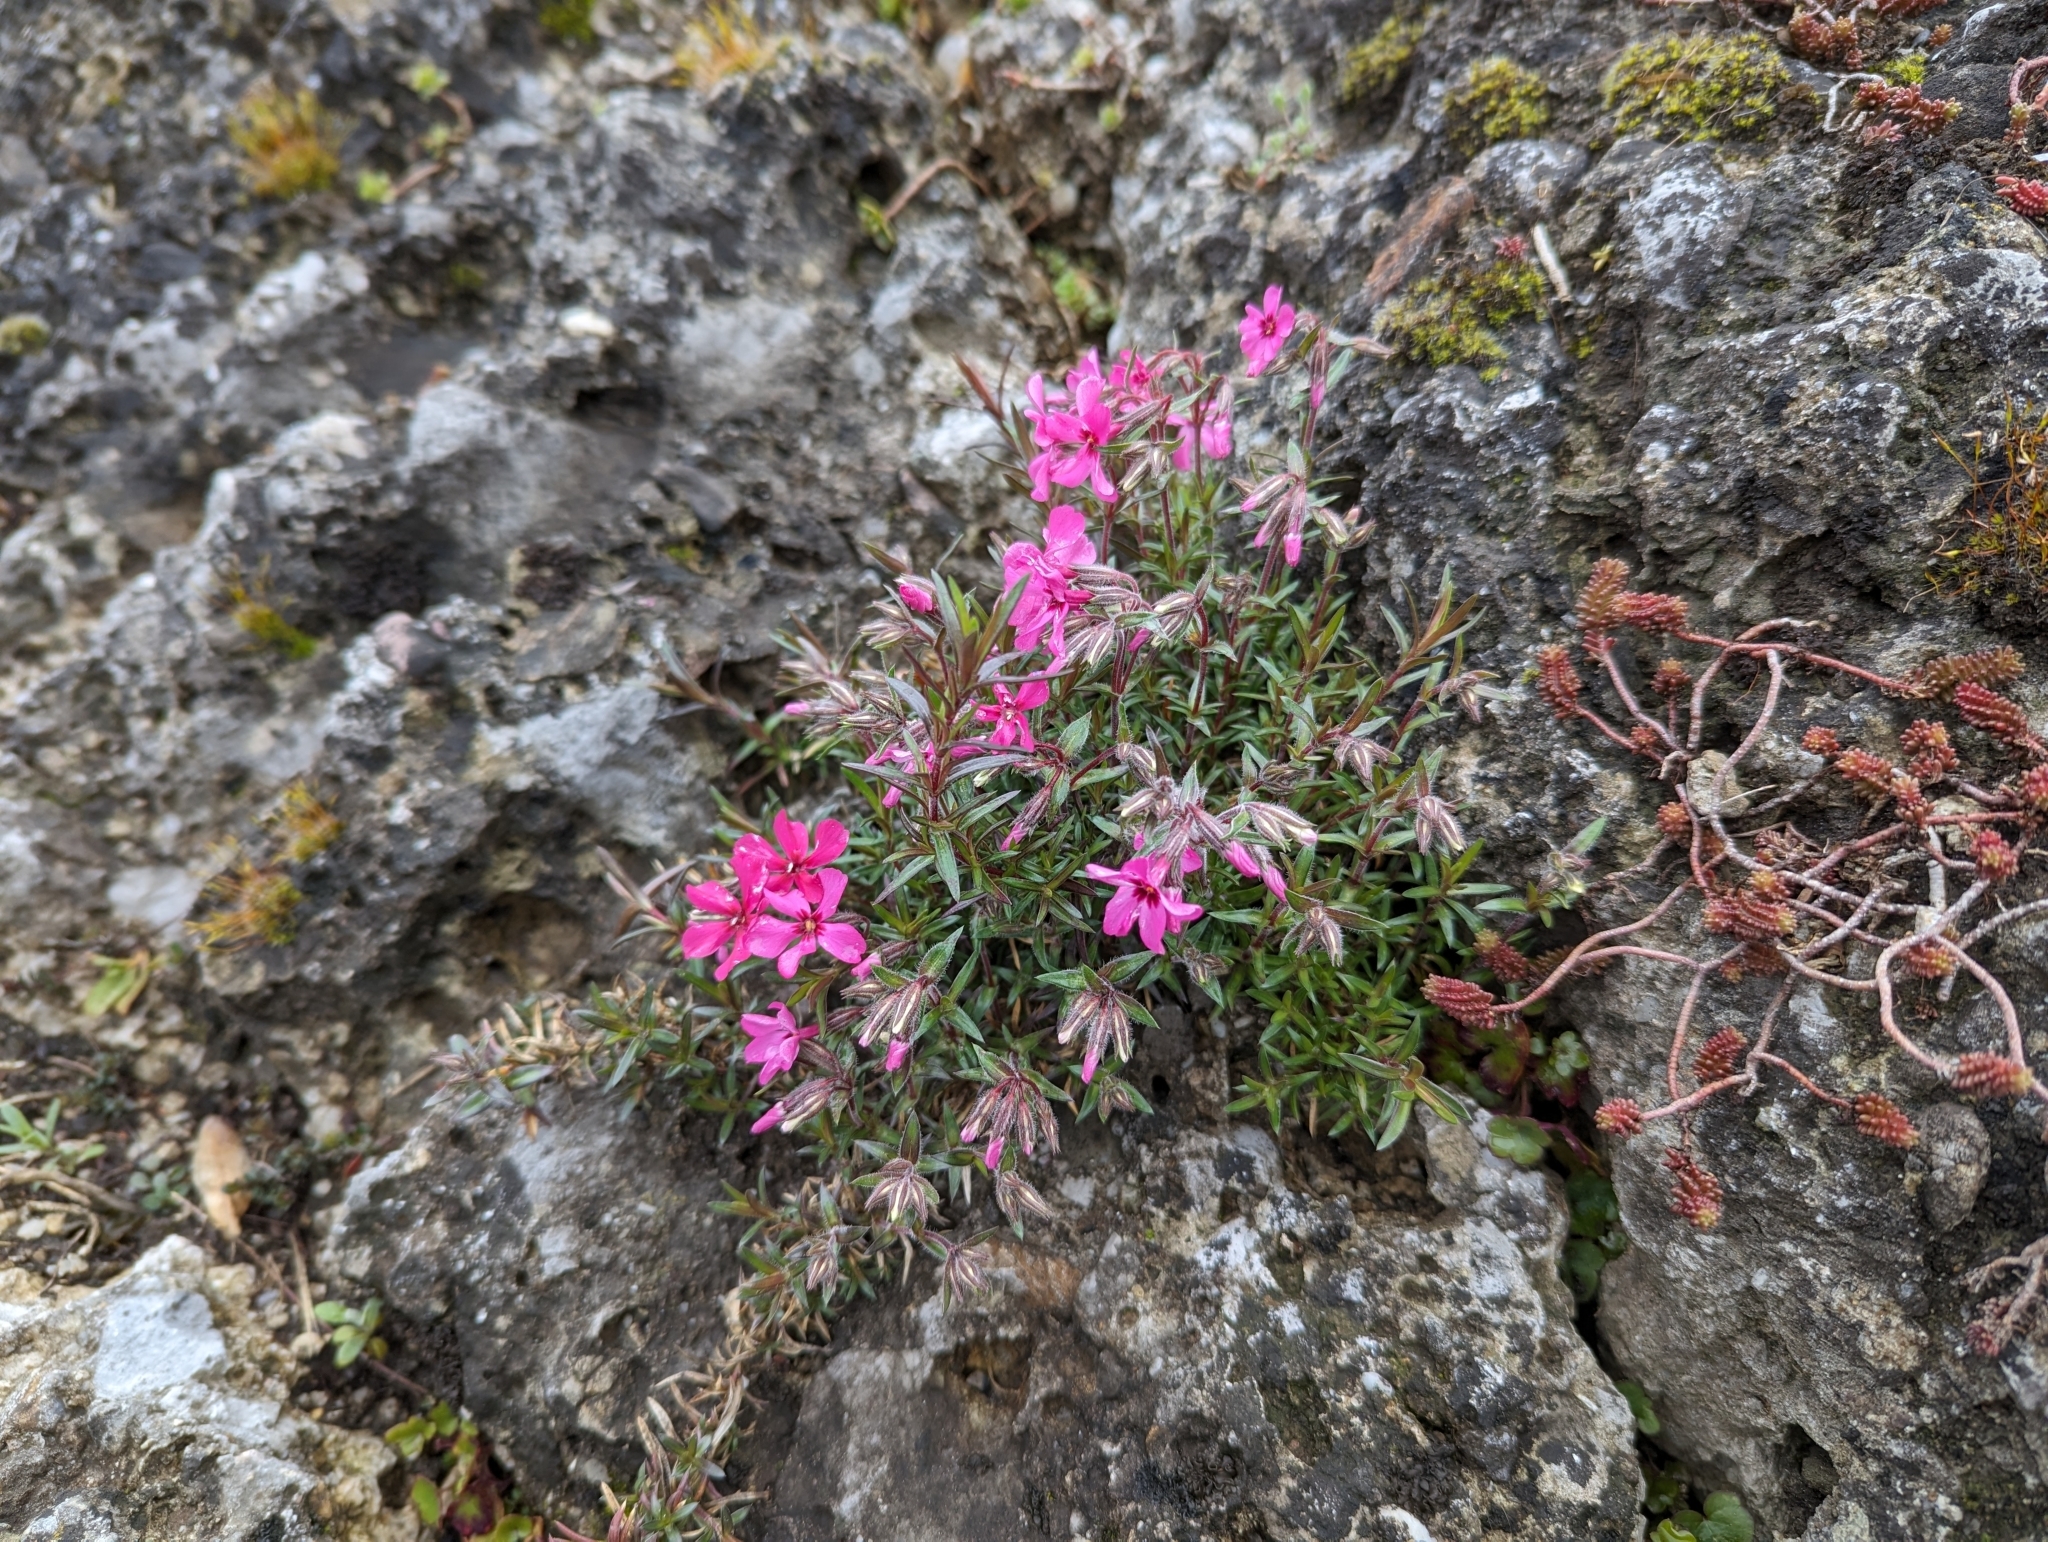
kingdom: Plantae
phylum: Tracheophyta
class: Magnoliopsida
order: Ericales
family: Polemoniaceae
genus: Phlox
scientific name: Phlox subulata
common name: Moss phlox
